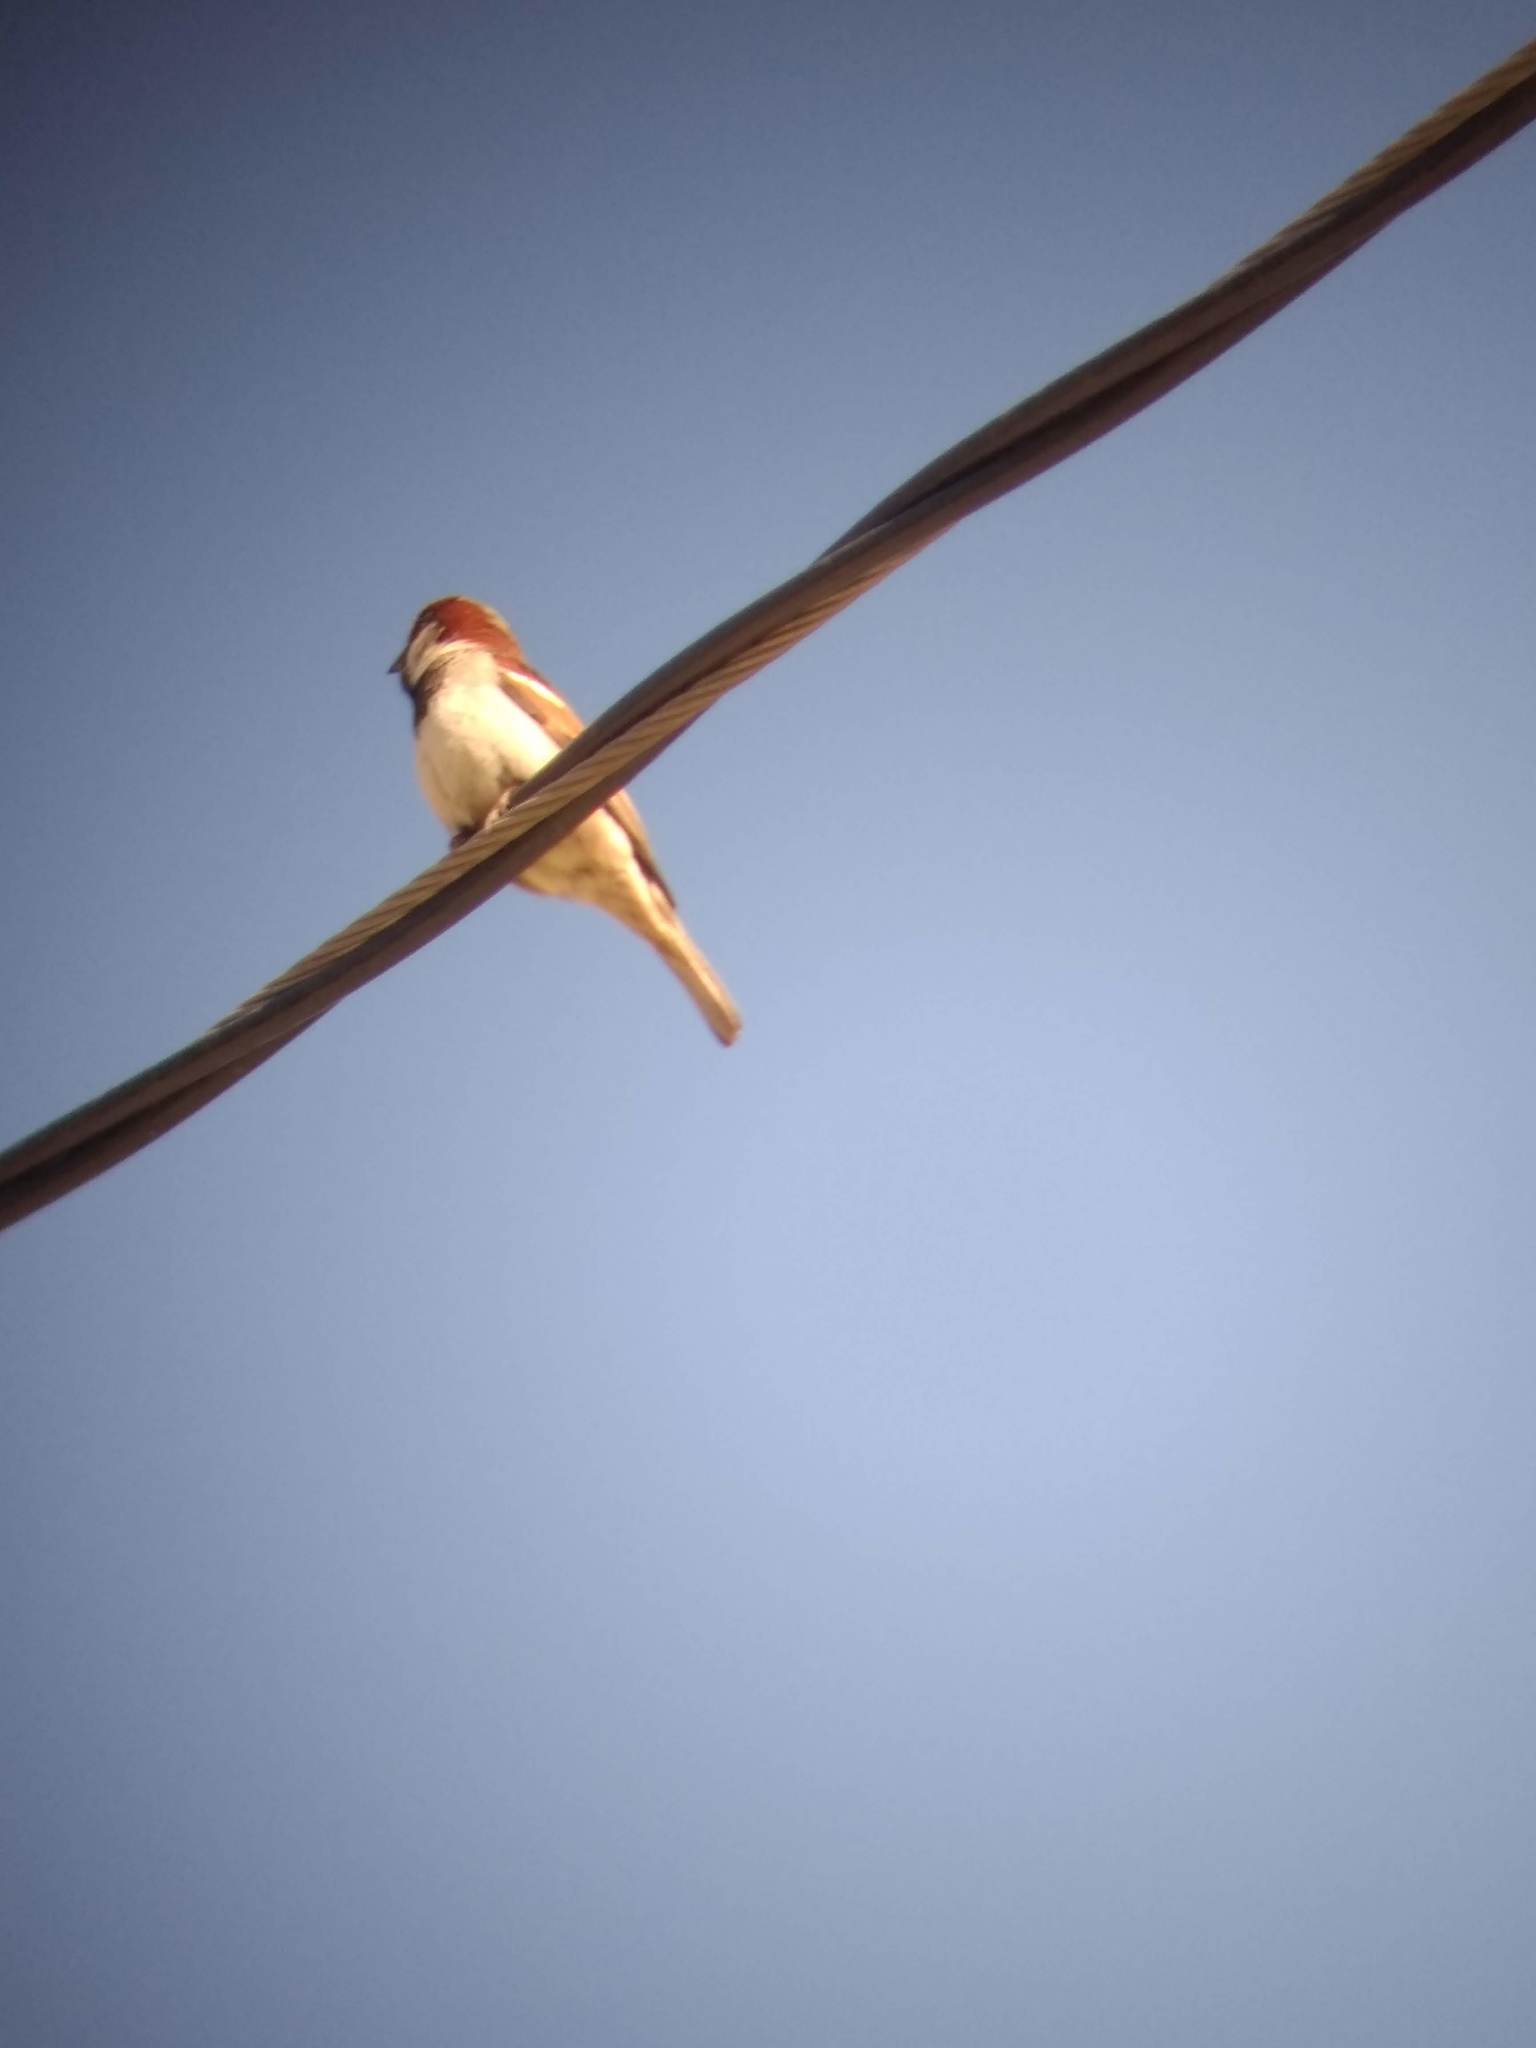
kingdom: Animalia
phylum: Chordata
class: Aves
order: Passeriformes
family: Passeridae
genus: Passer
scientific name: Passer domesticus
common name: House sparrow
